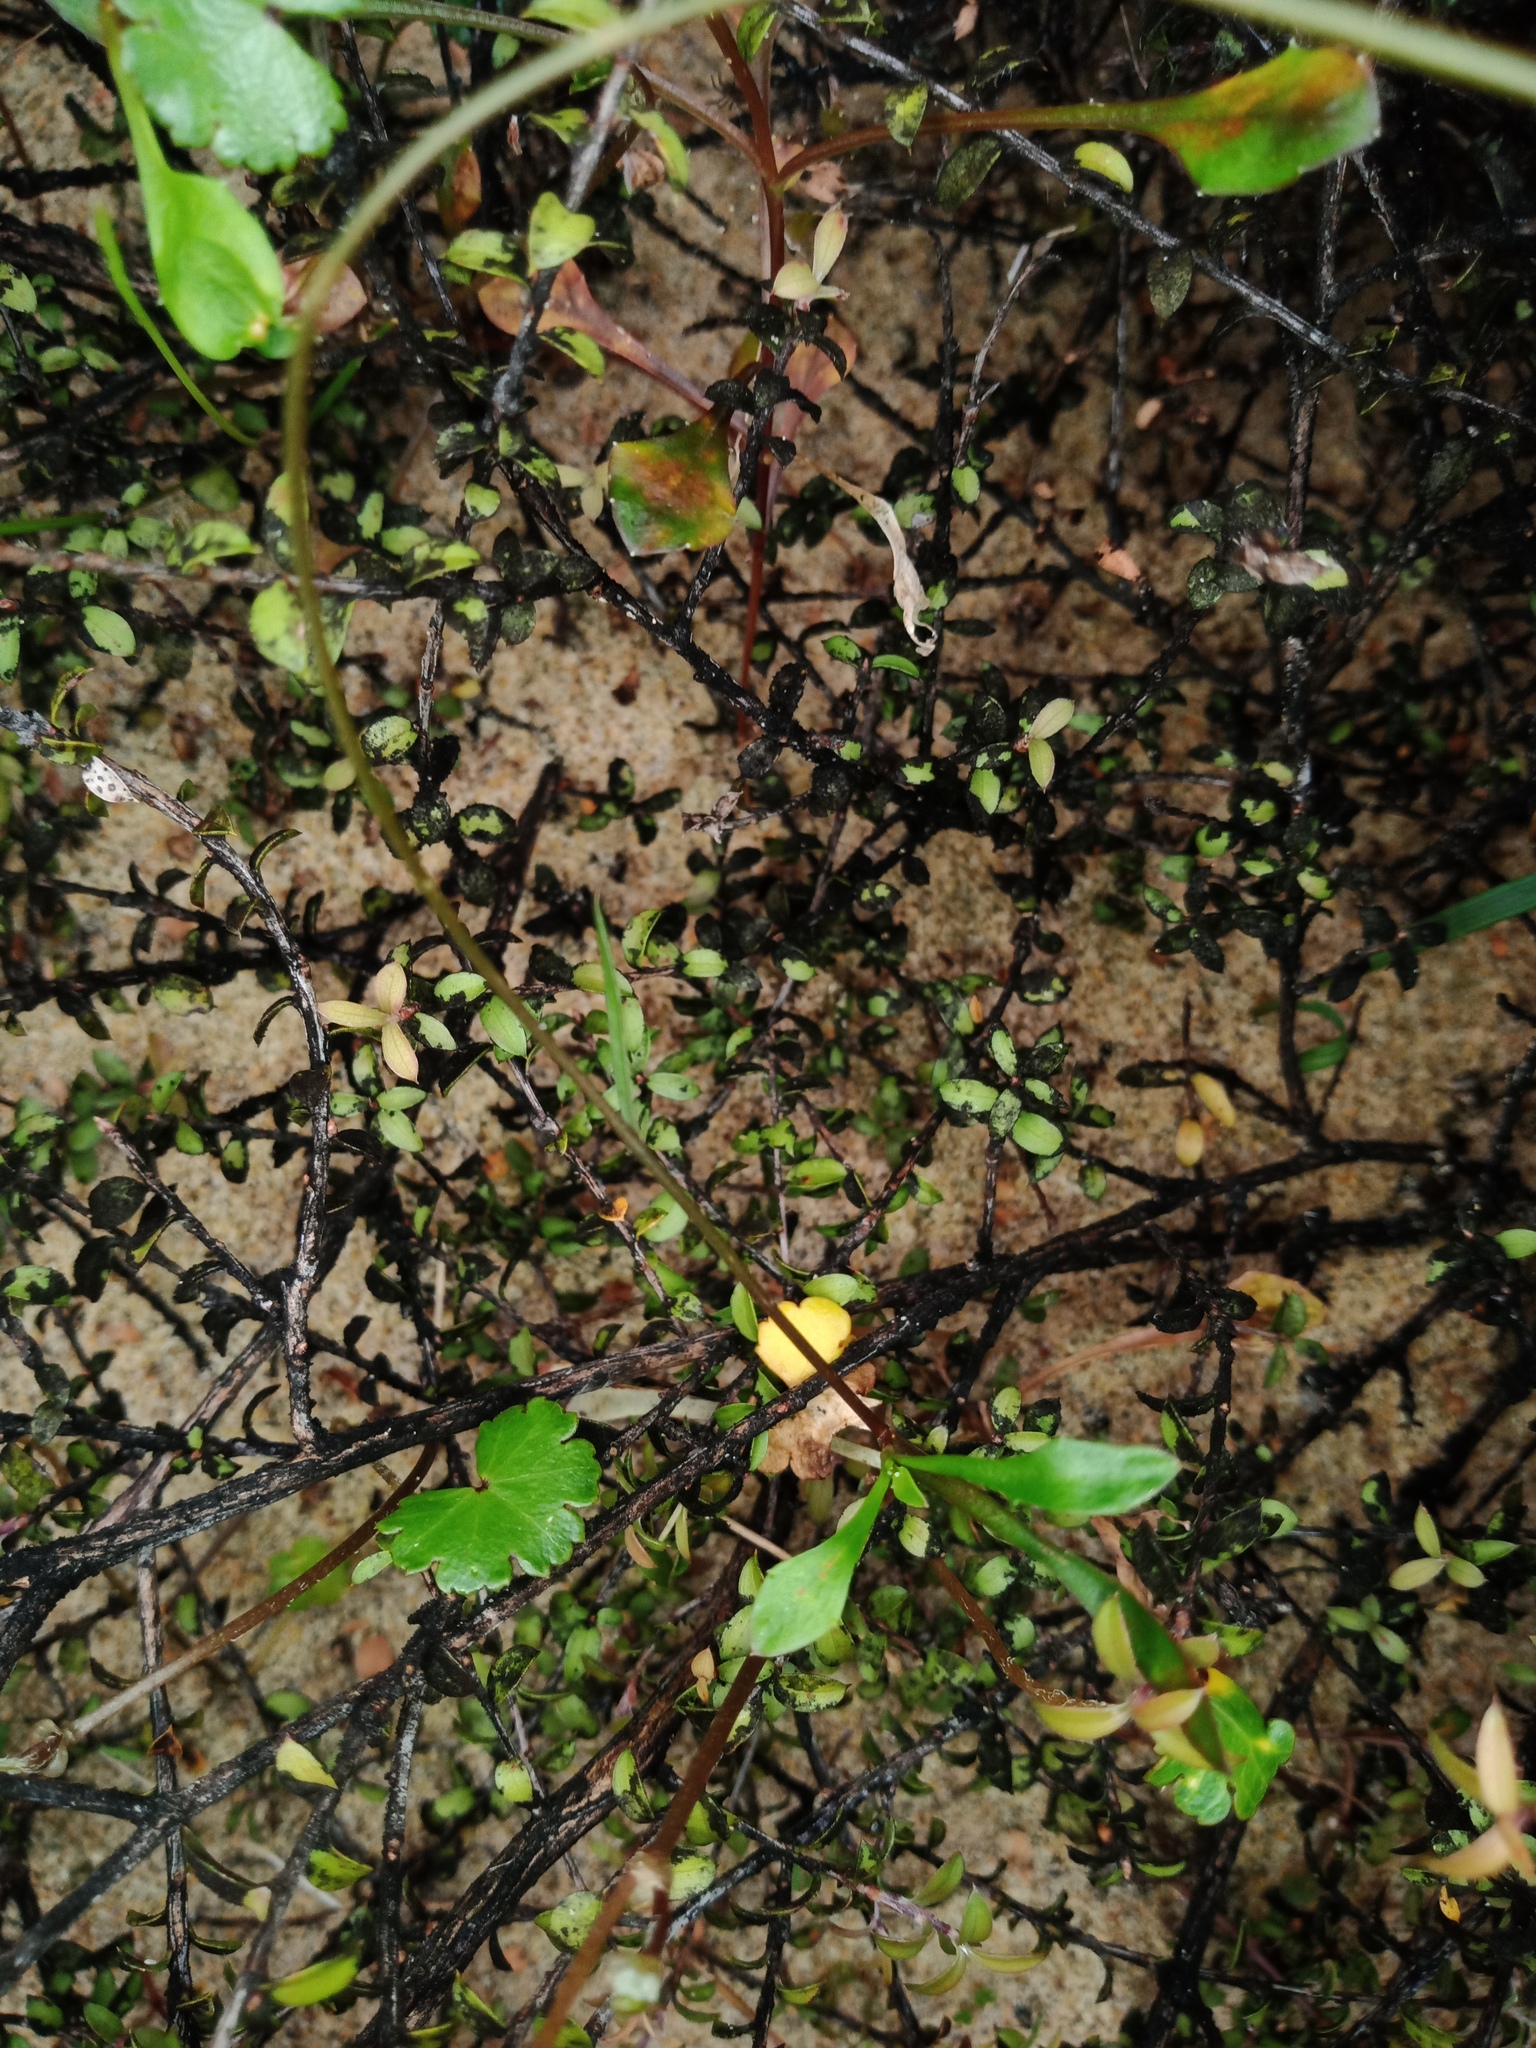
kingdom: Plantae
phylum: Tracheophyta
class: Magnoliopsida
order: Ericales
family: Primulaceae
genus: Samolus
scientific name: Samolus repens
